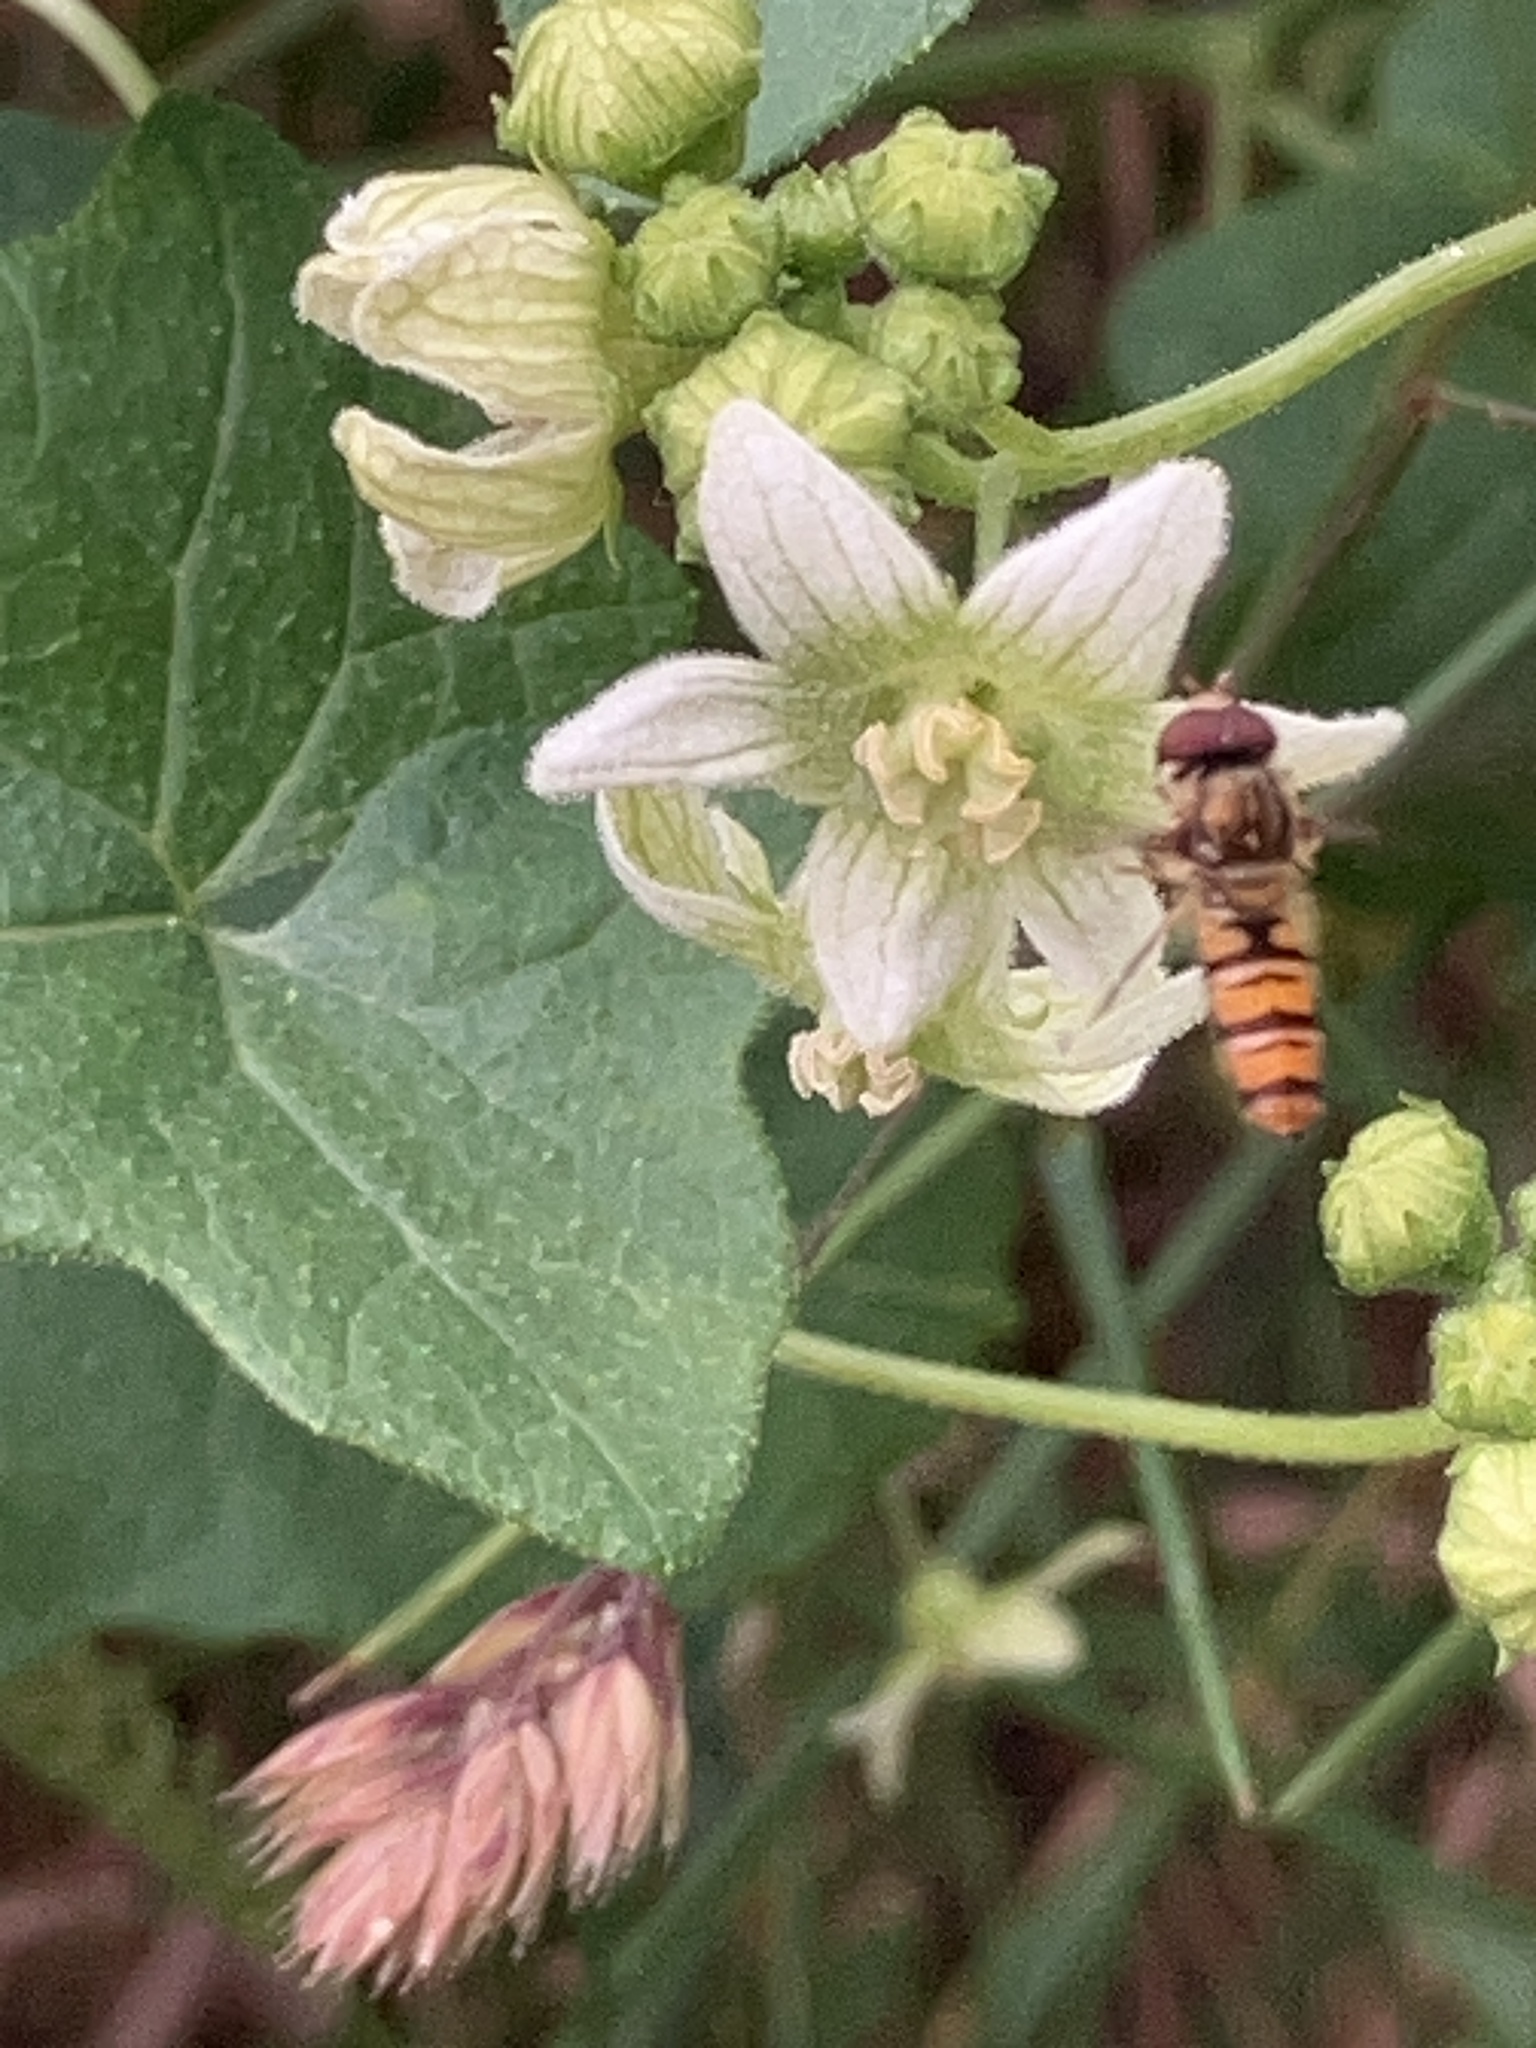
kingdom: Animalia
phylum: Arthropoda
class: Insecta
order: Diptera
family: Syrphidae
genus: Episyrphus
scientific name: Episyrphus balteatus
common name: Marmalade hoverfly
